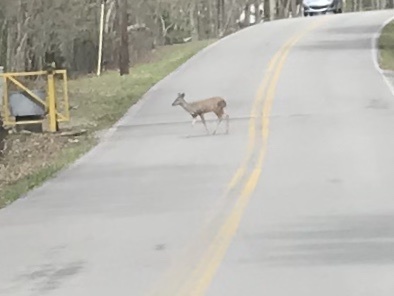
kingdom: Animalia
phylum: Chordata
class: Mammalia
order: Artiodactyla
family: Cervidae
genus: Odocoileus
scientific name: Odocoileus virginianus
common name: White-tailed deer
